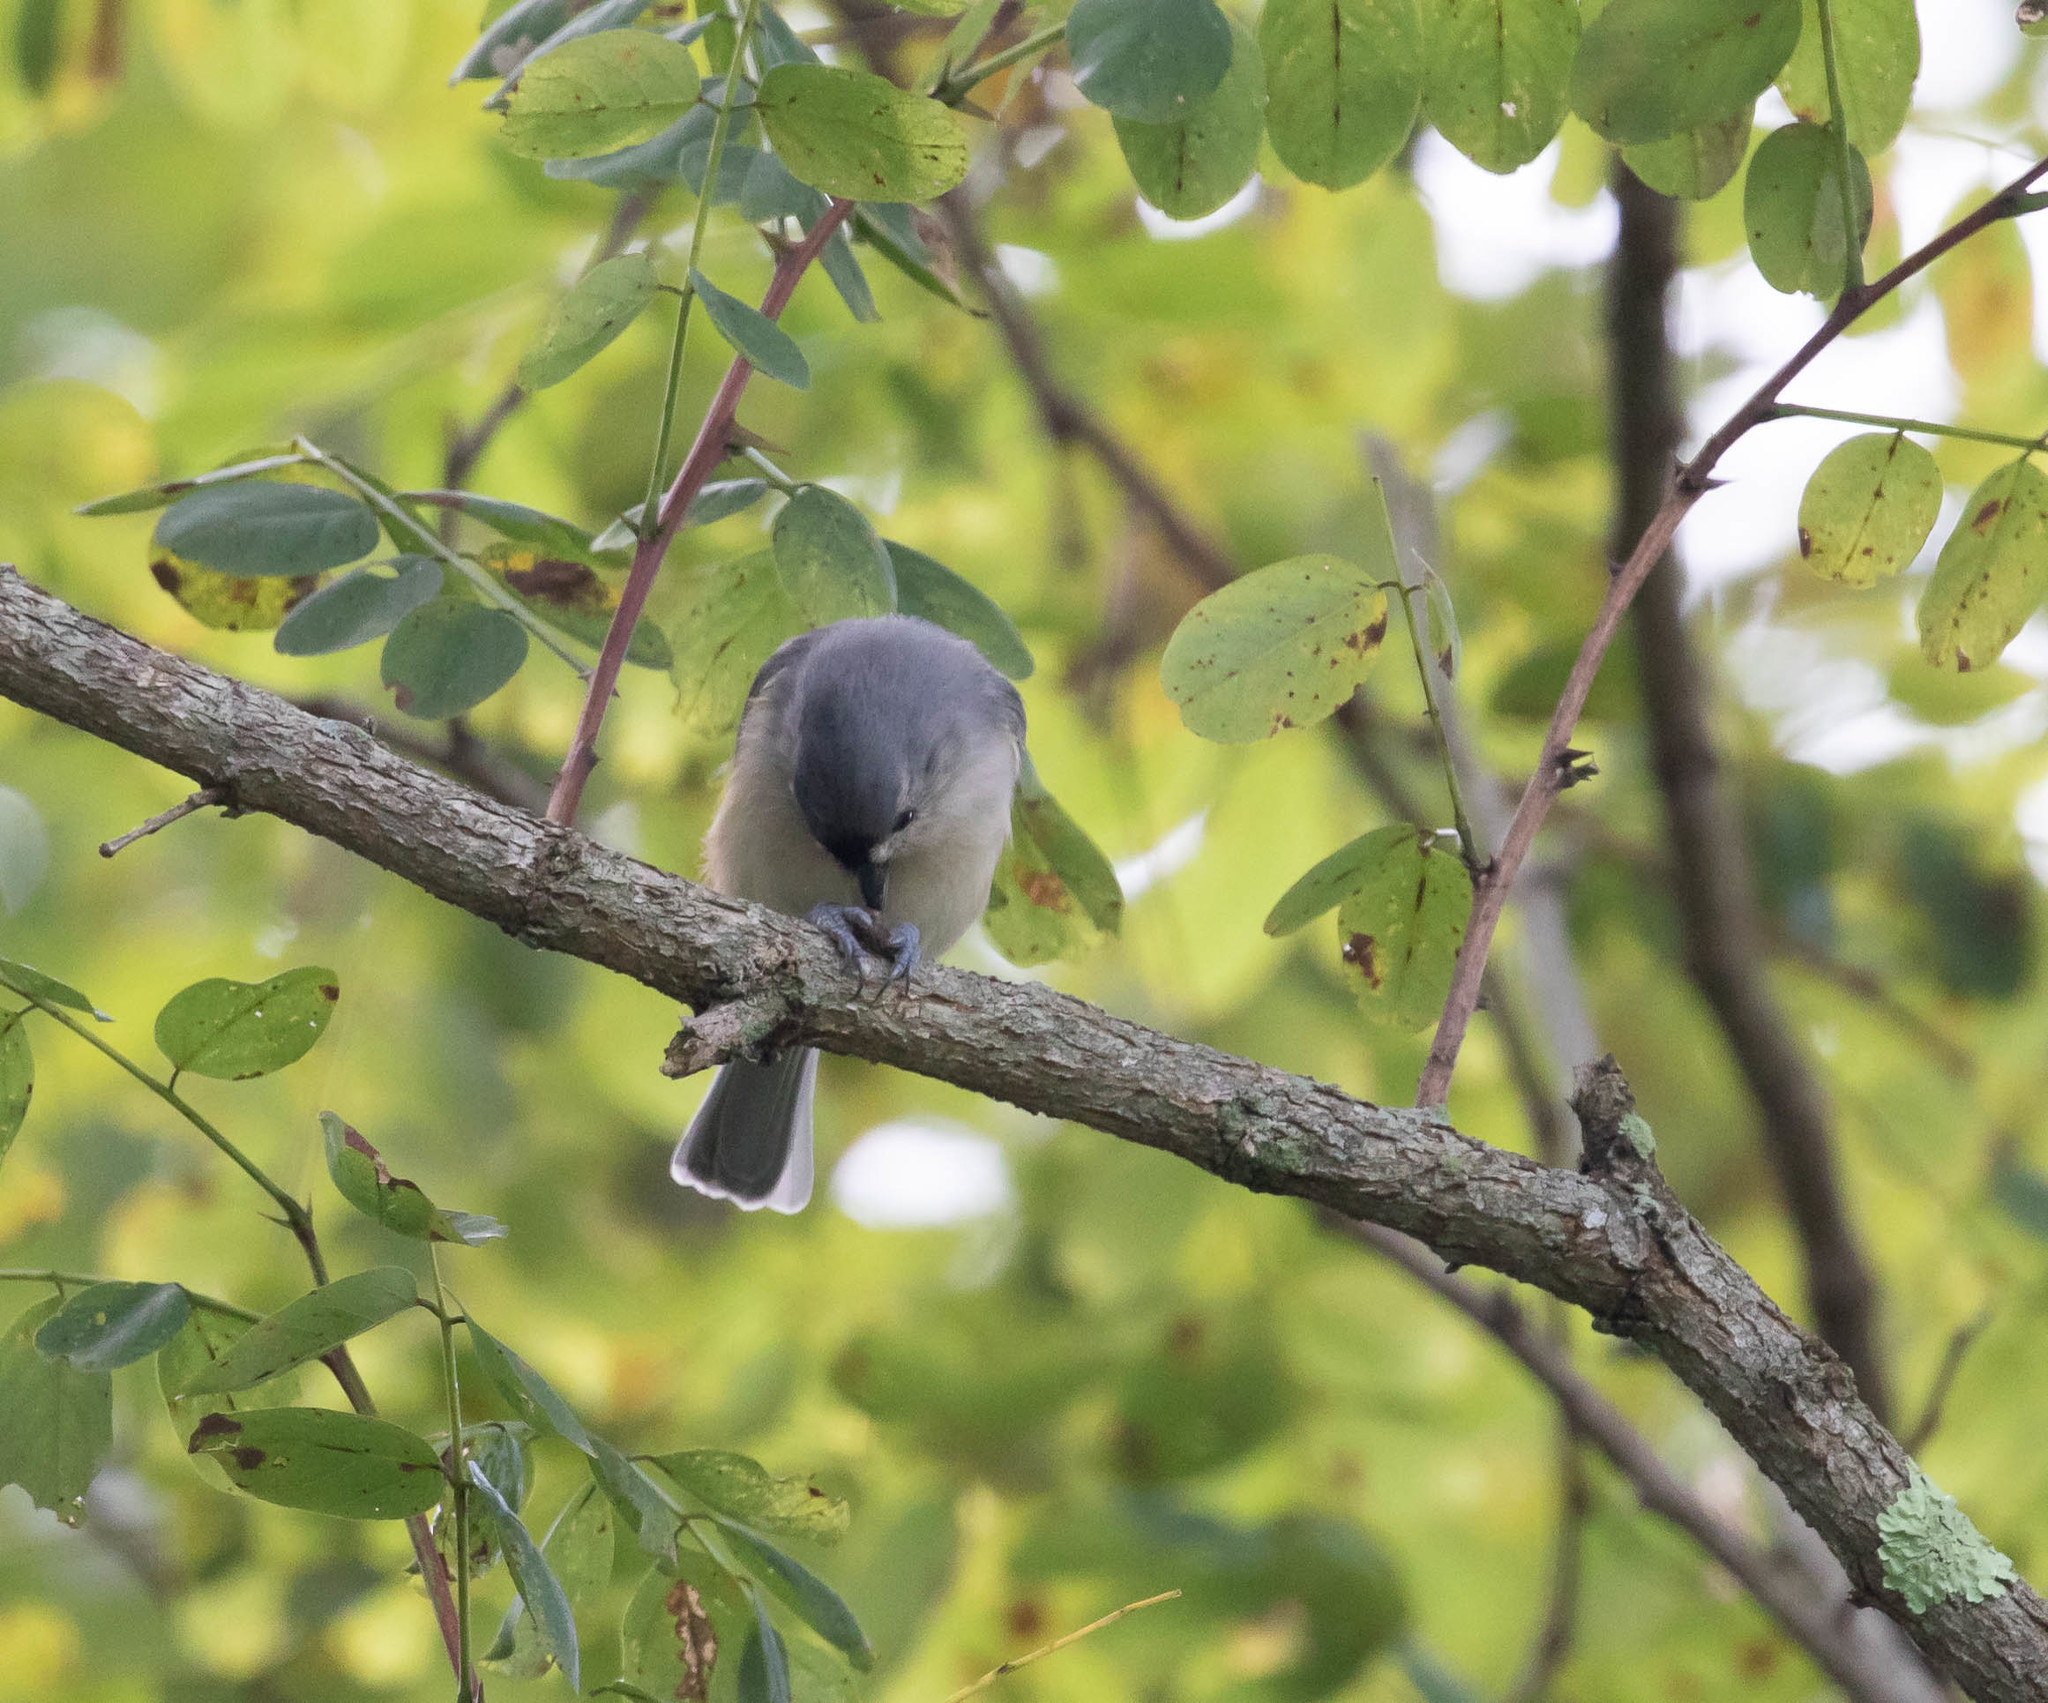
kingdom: Animalia
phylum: Chordata
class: Aves
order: Passeriformes
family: Paridae
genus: Baeolophus
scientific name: Baeolophus bicolor
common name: Tufted titmouse
